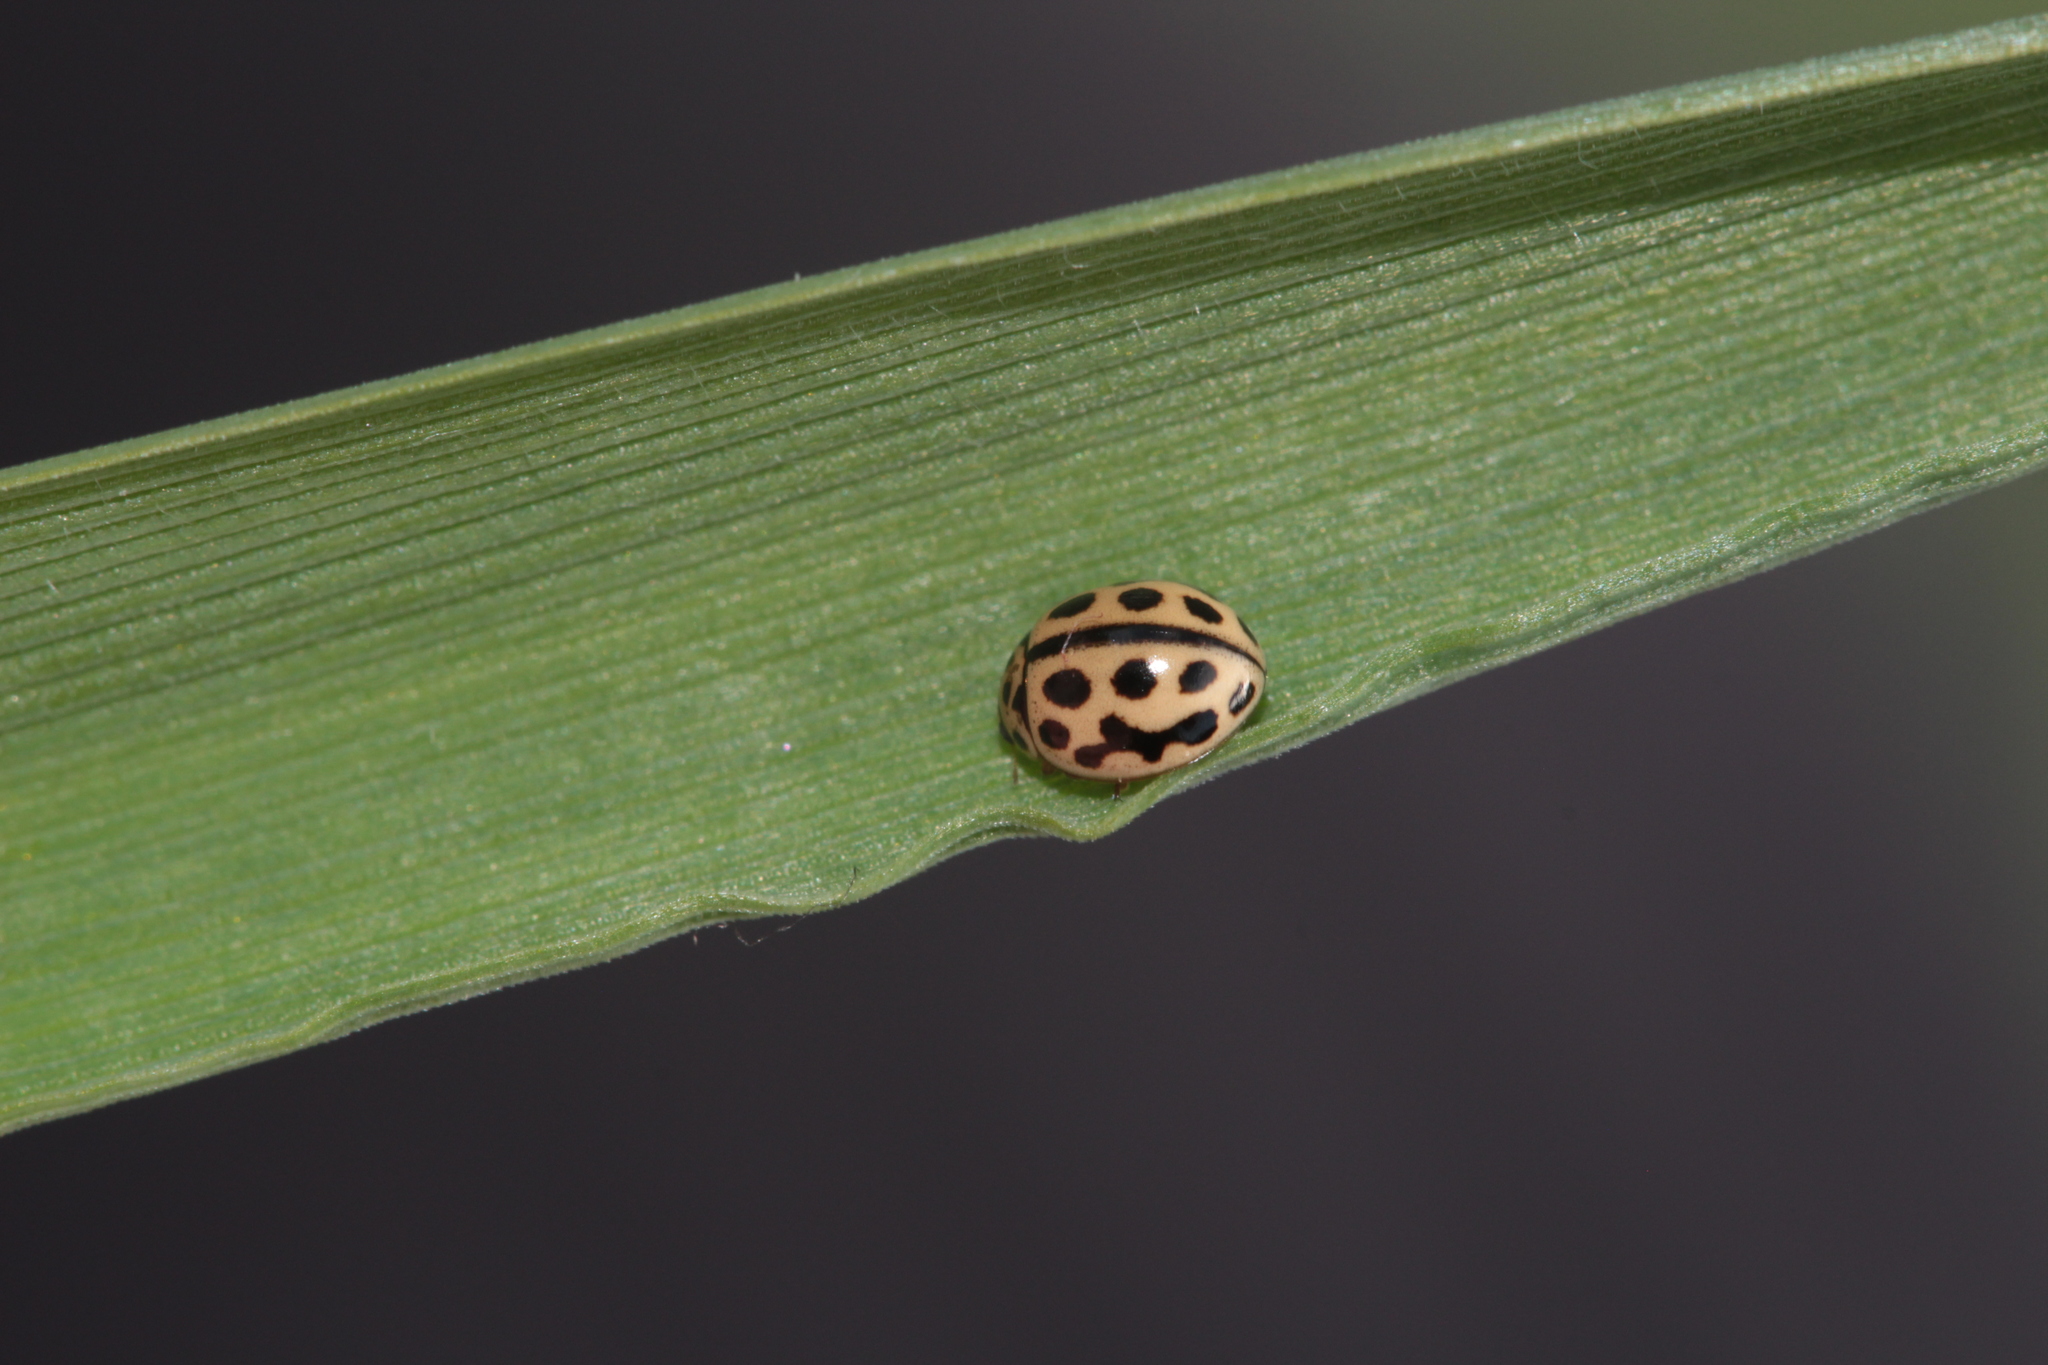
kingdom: Animalia
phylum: Arthropoda
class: Insecta
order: Coleoptera
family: Coccinellidae
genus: Tytthaspis
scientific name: Tytthaspis sedecimpunctata
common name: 16-spot ladybird
